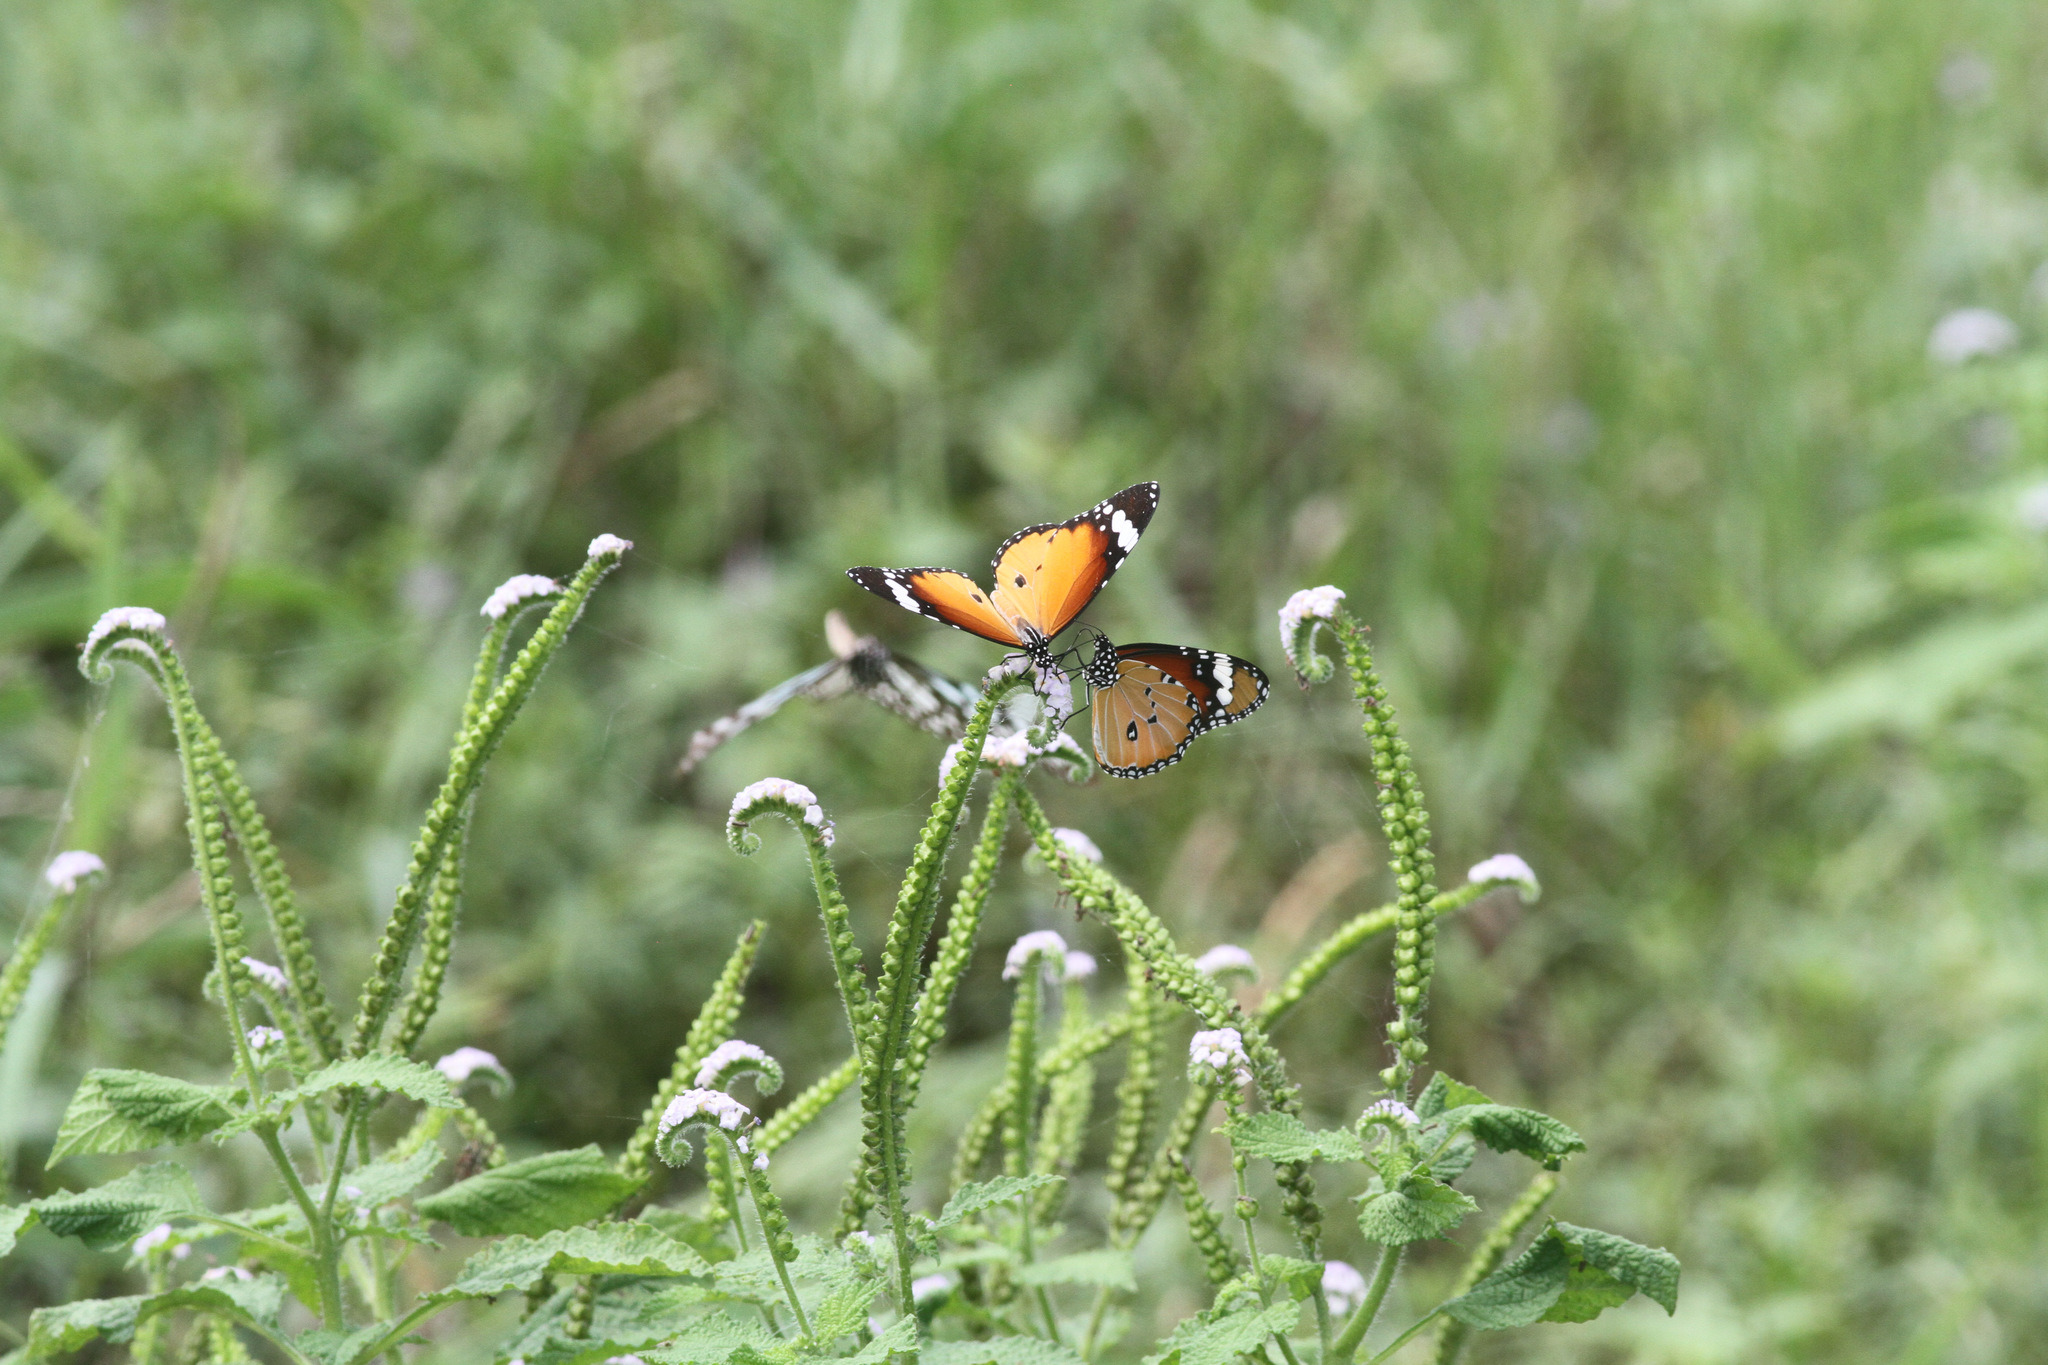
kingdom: Animalia
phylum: Arthropoda
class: Insecta
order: Lepidoptera
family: Nymphalidae
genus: Danaus
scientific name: Danaus chrysippus
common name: Plain tiger
